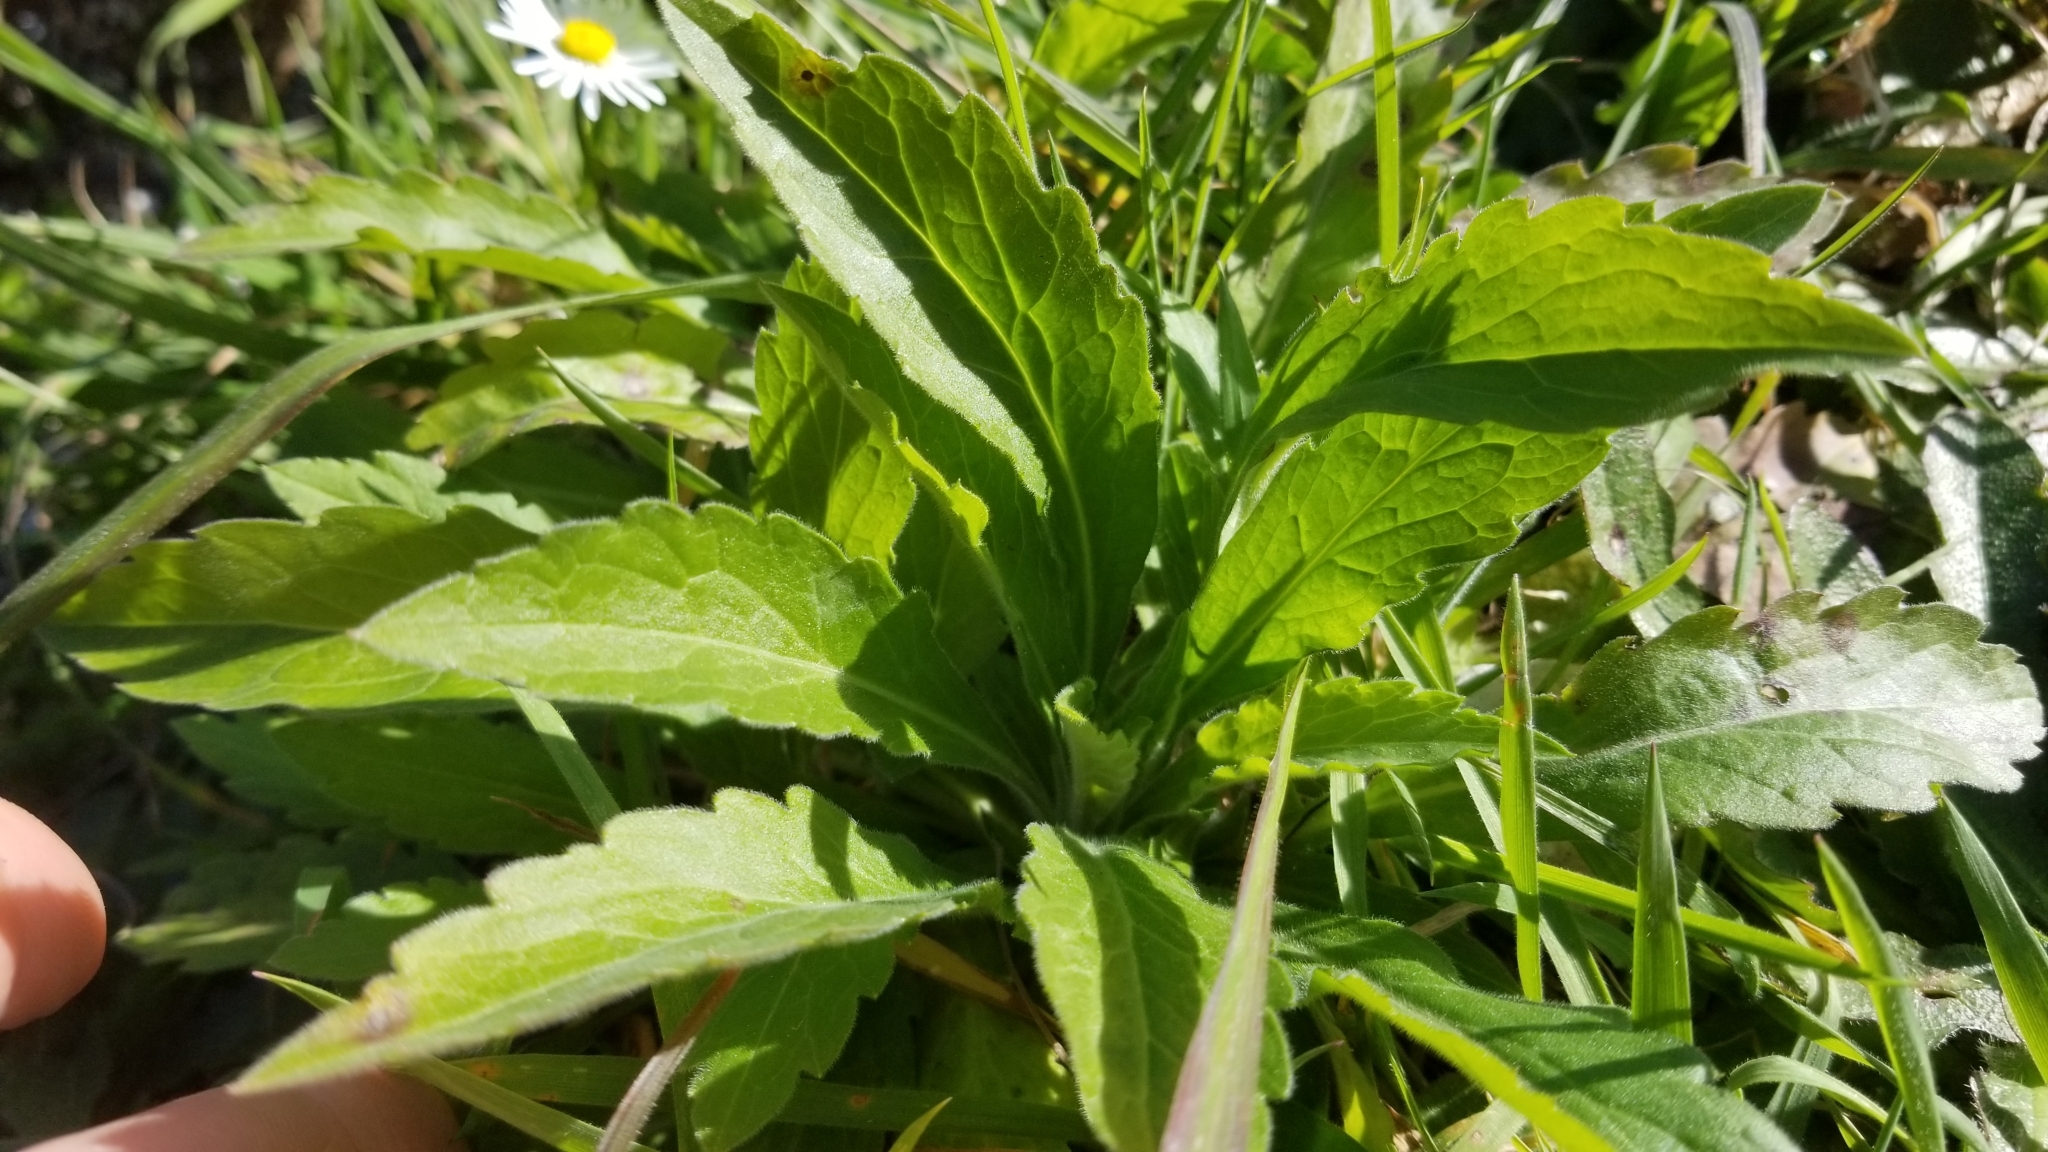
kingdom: Plantae
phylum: Tracheophyta
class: Magnoliopsida
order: Asterales
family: Asteraceae
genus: Erigeron
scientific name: Erigeron sumatrensis
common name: Daisy
